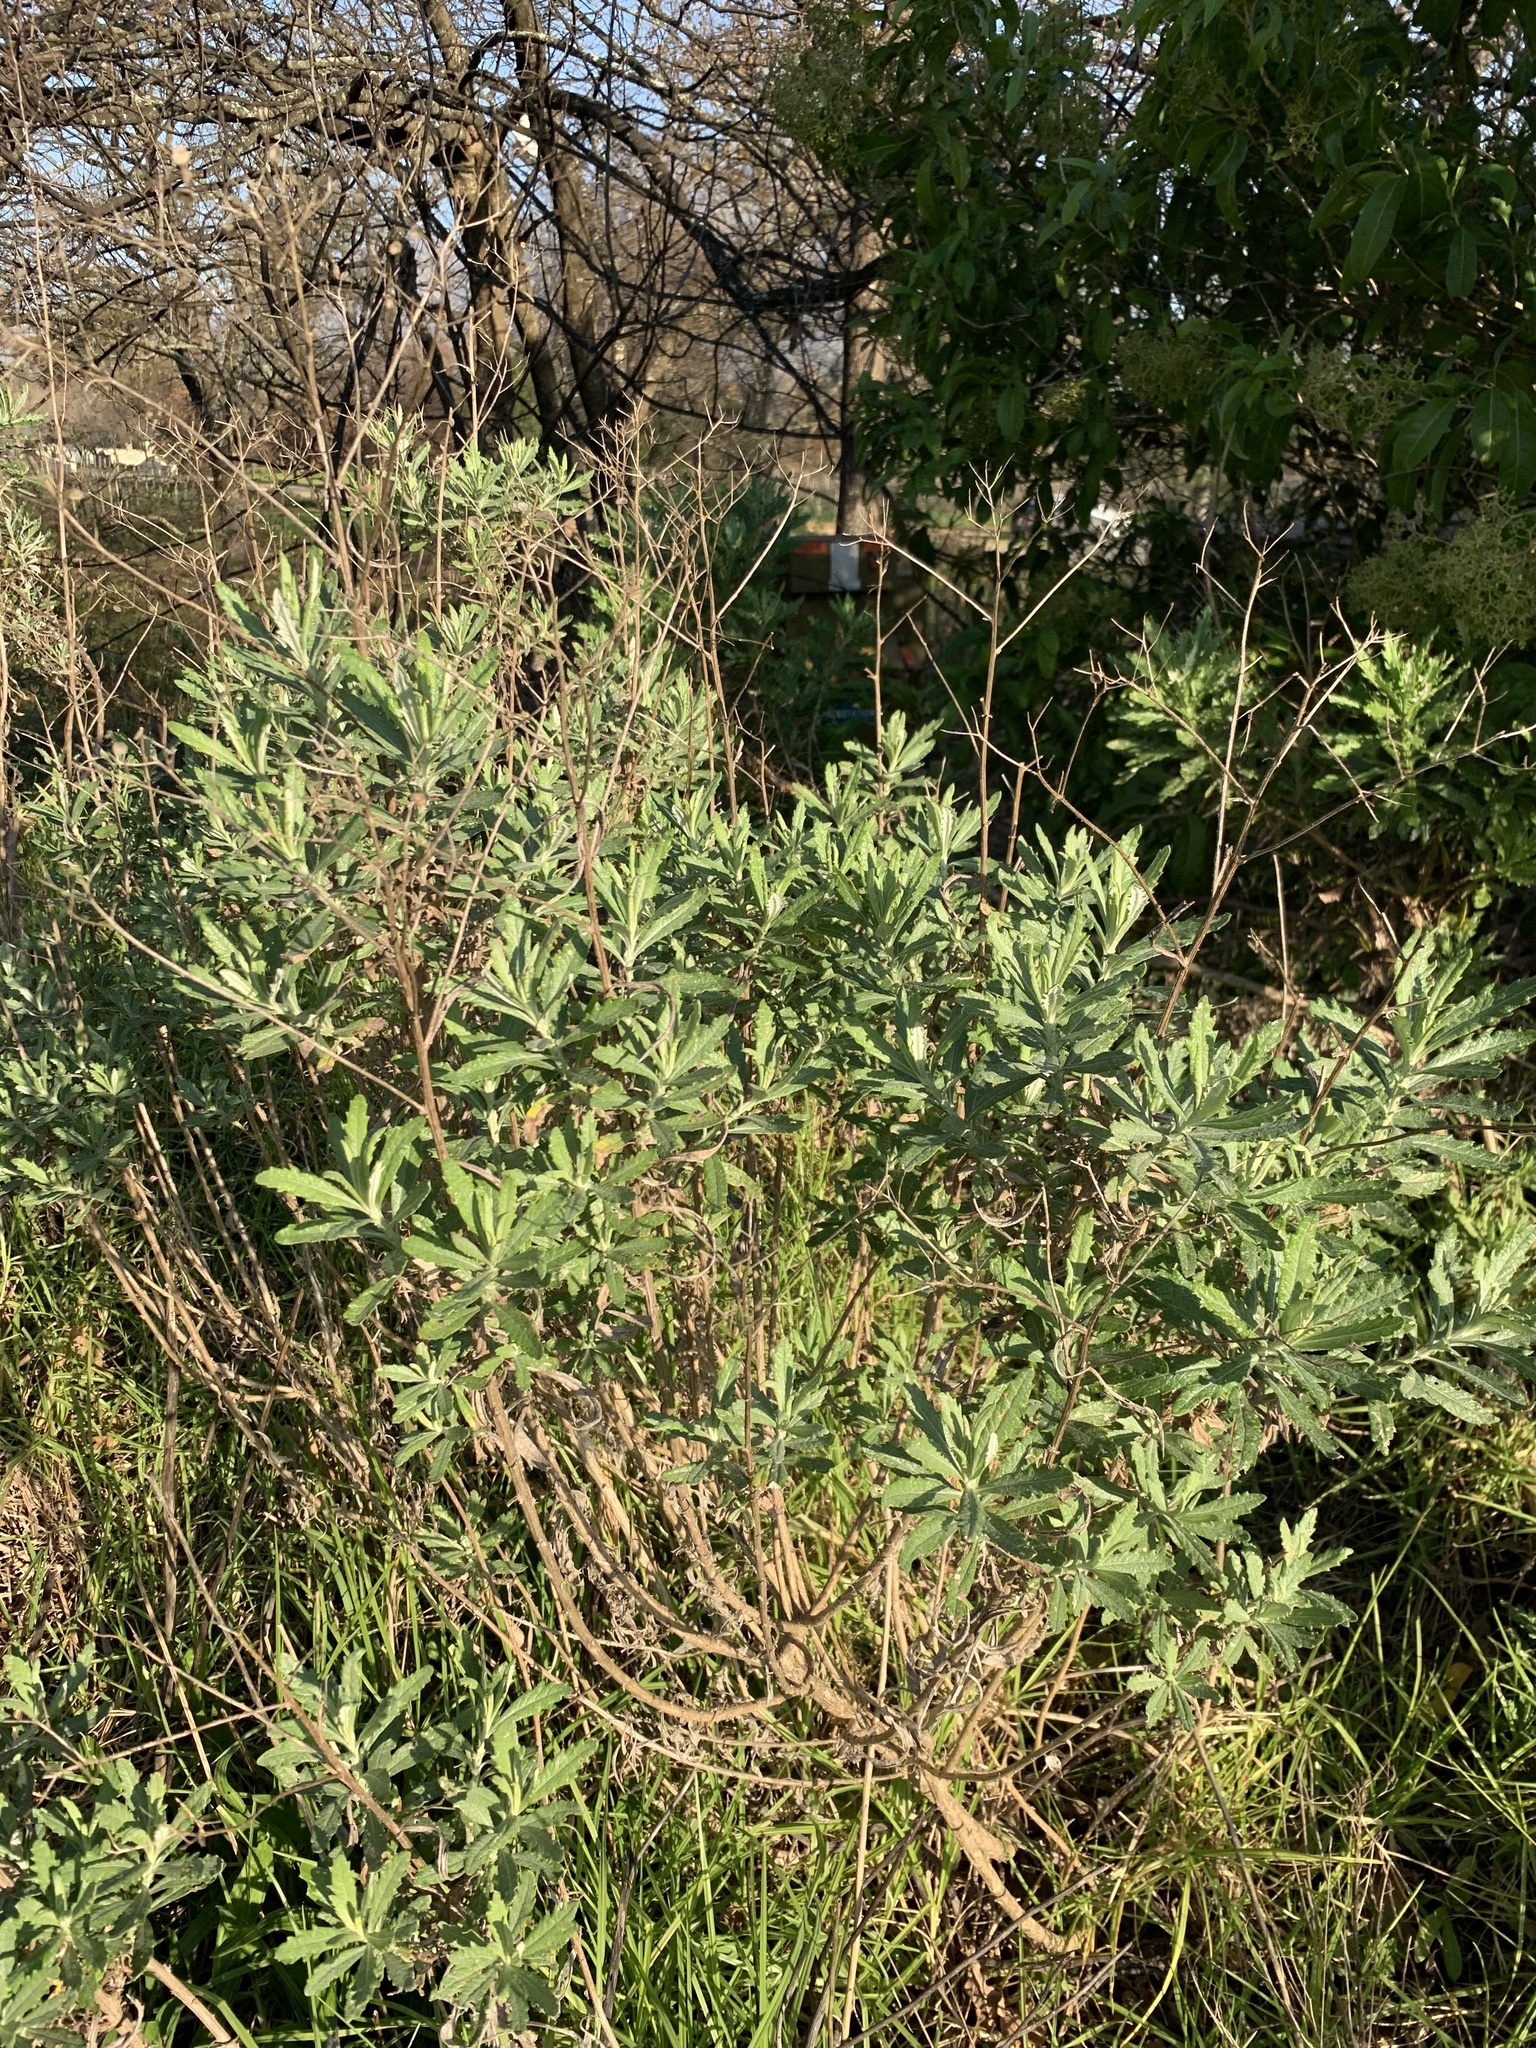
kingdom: Plantae
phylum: Tracheophyta
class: Magnoliopsida
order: Asterales
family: Asteraceae
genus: Senecio
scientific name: Senecio pterophorus
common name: Shoddy ragwort
